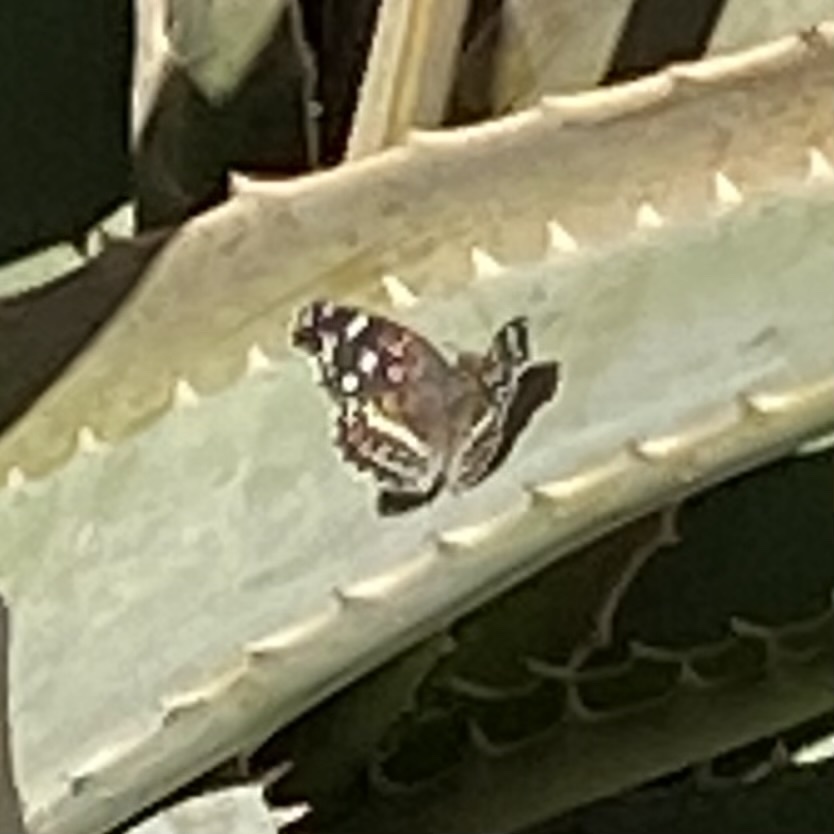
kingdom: Animalia
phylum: Arthropoda
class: Insecta
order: Lepidoptera
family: Nymphalidae
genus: Anthanassa
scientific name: Anthanassa texana
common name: Texan crescent
